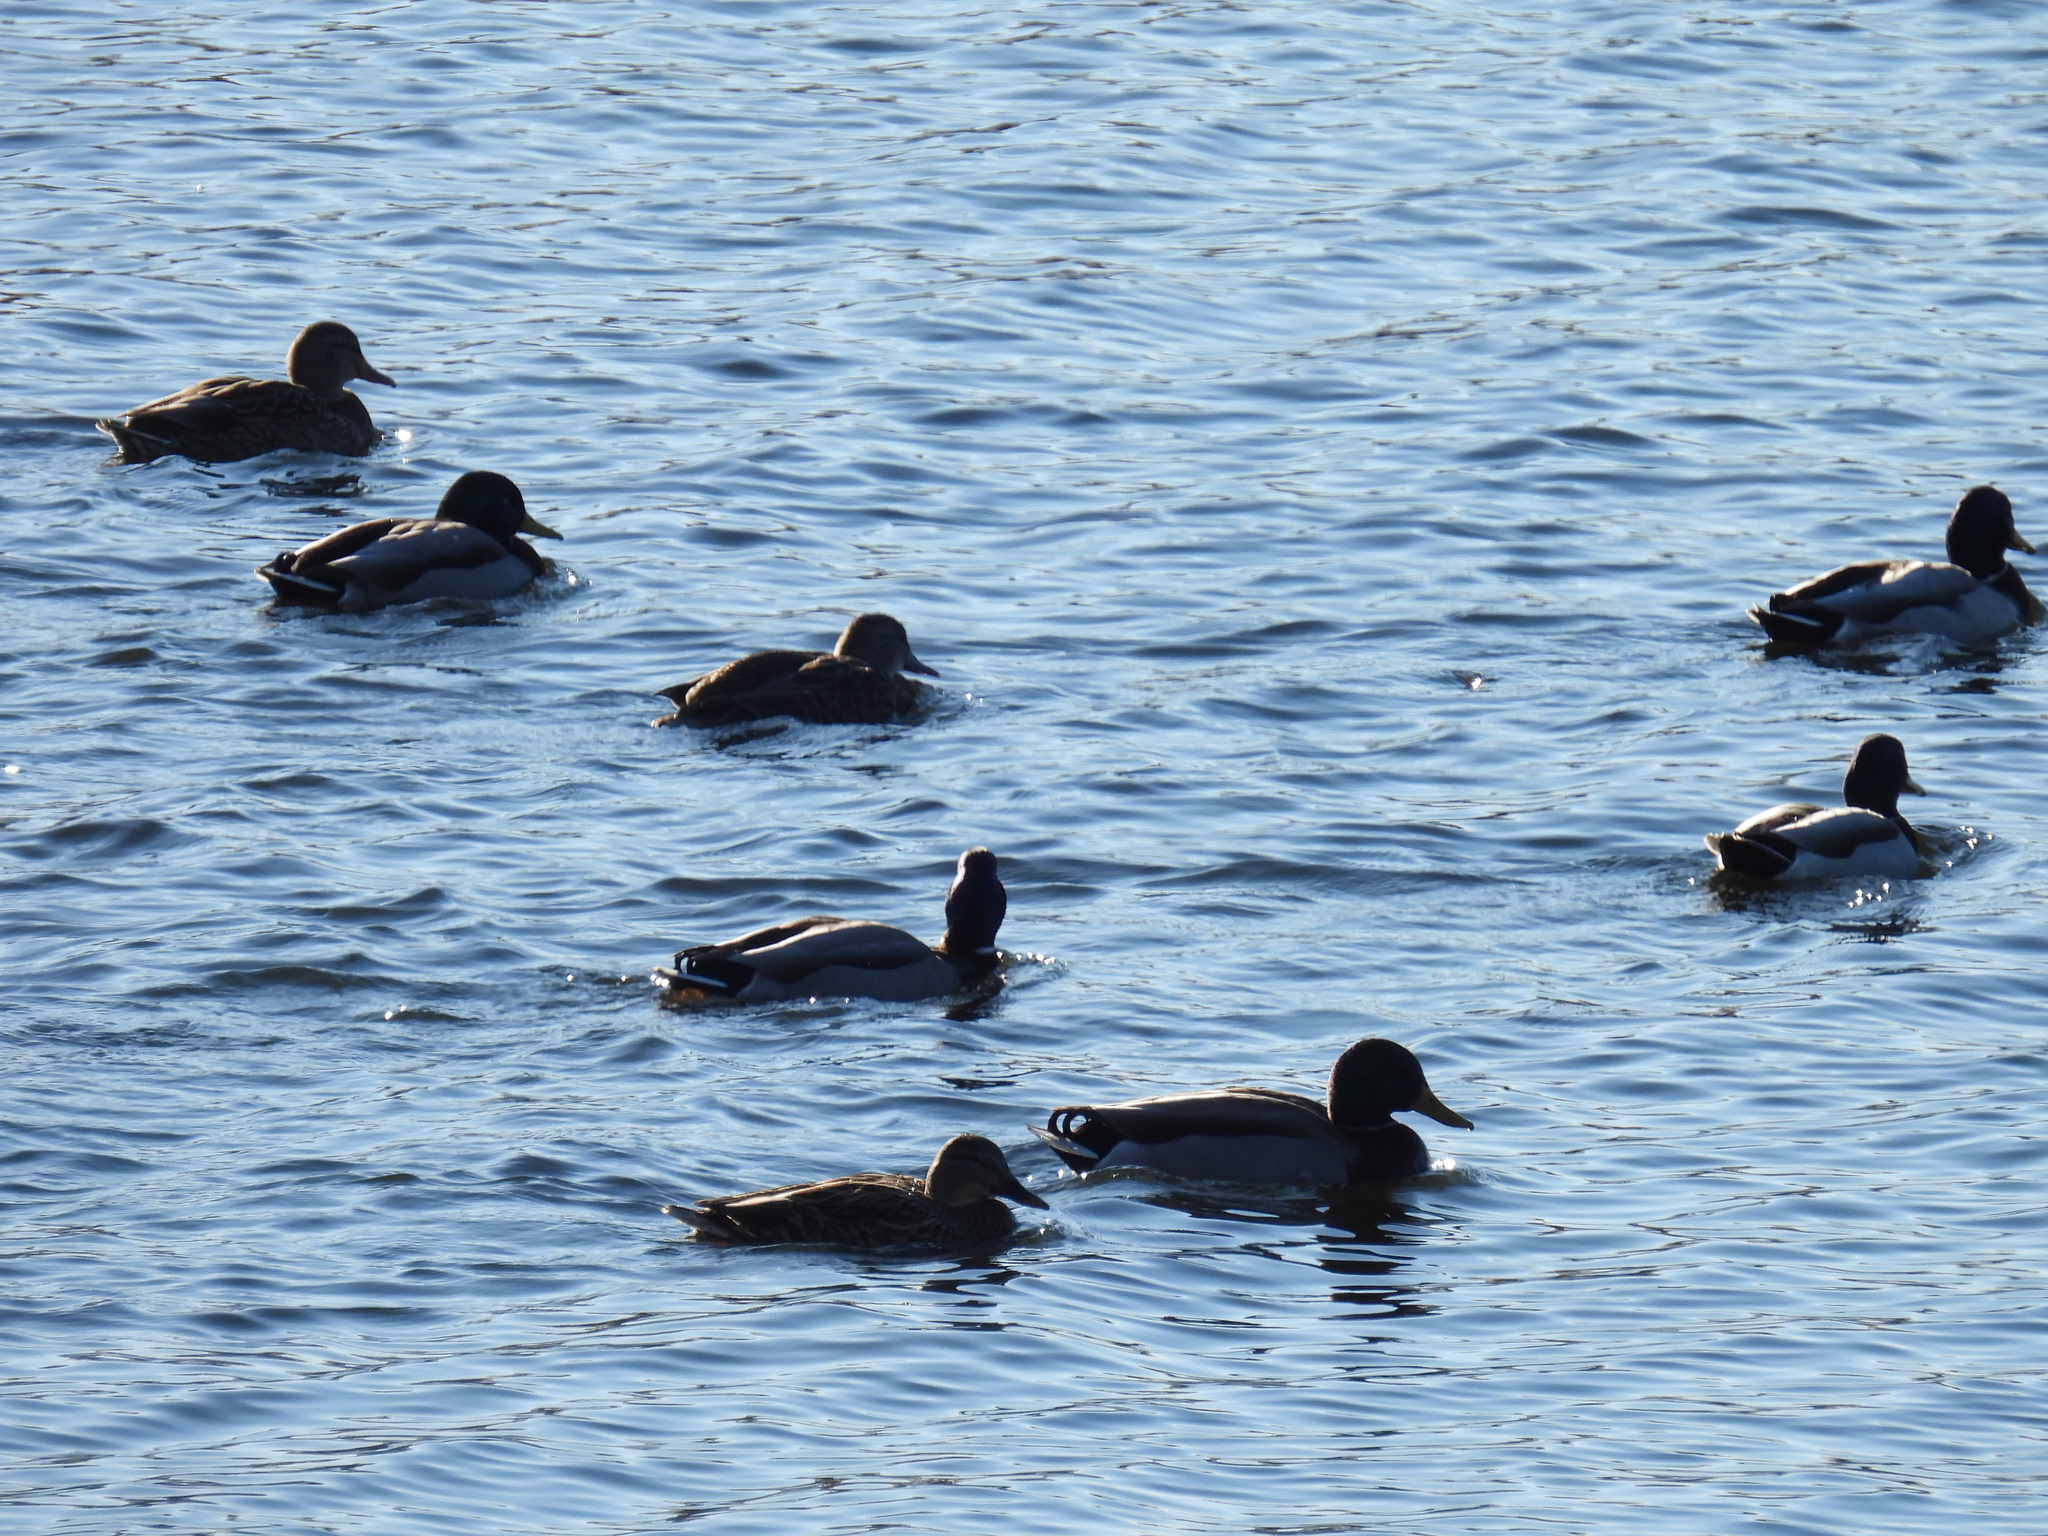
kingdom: Animalia
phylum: Chordata
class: Aves
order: Anseriformes
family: Anatidae
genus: Anas
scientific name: Anas platyrhynchos
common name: Mallard
